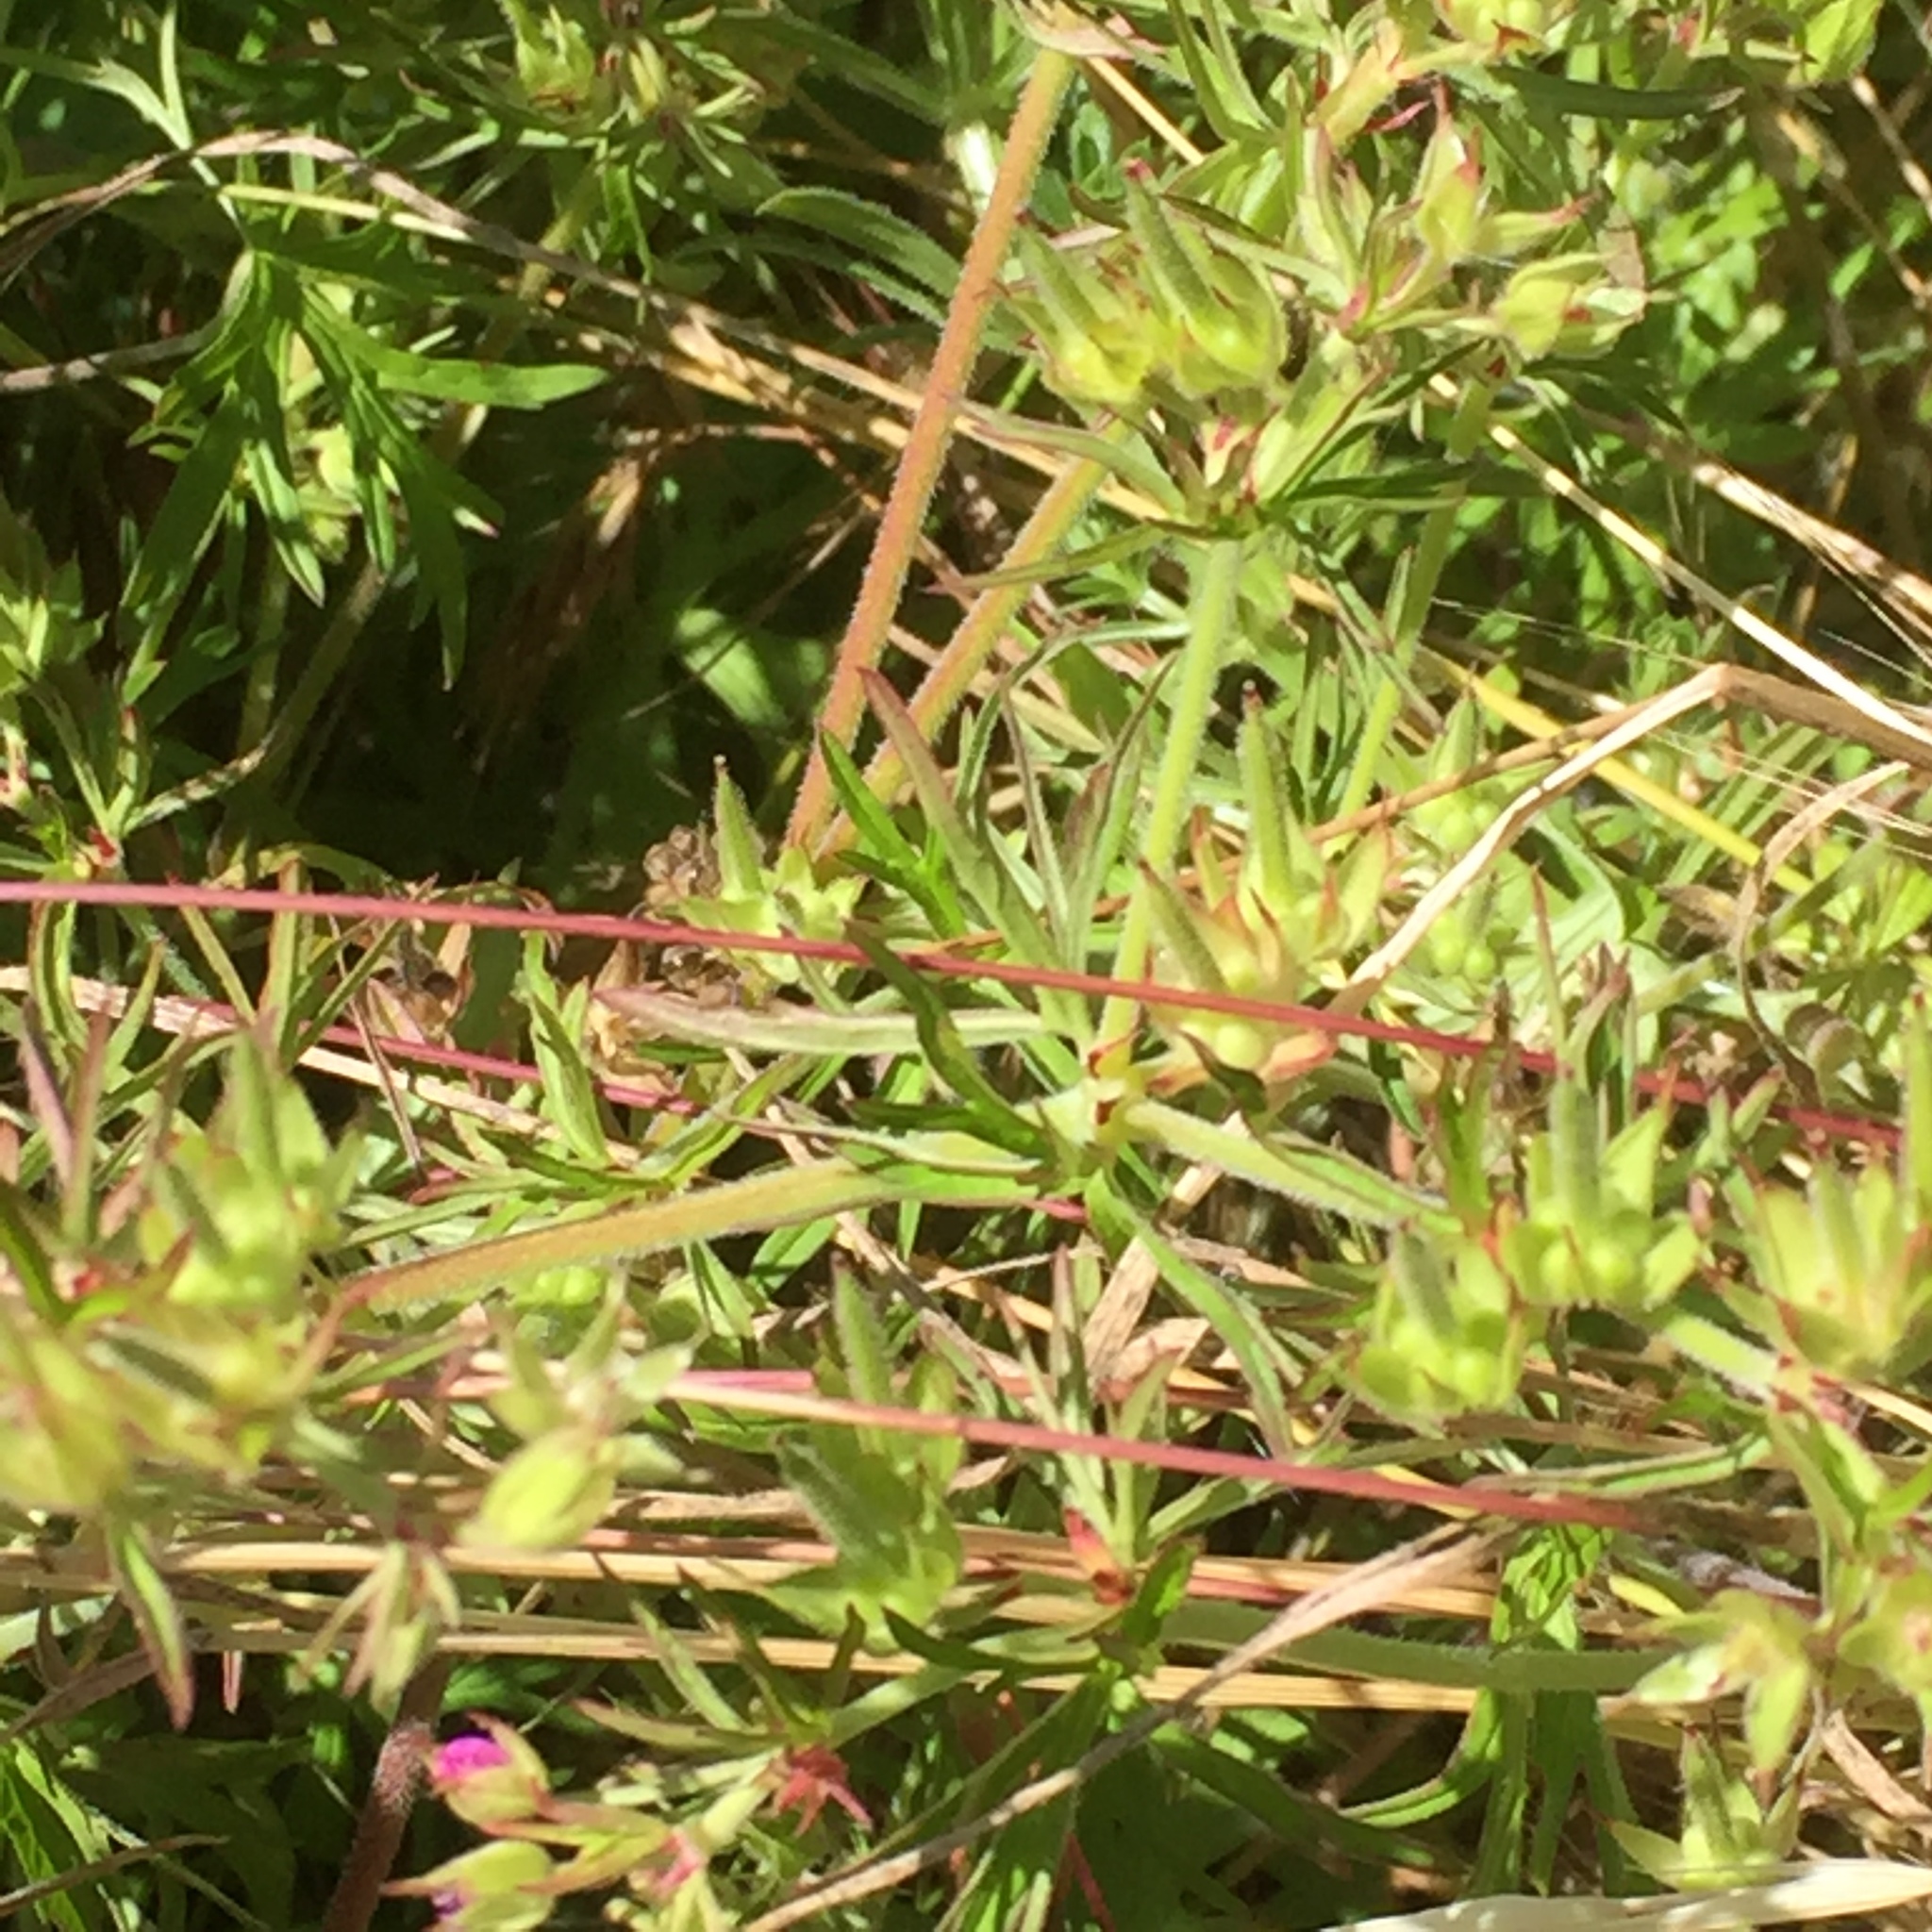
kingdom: Plantae
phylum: Tracheophyta
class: Magnoliopsida
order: Geraniales
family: Geraniaceae
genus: Geranium
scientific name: Geranium dissectum
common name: Cut-leaved crane's-bill
